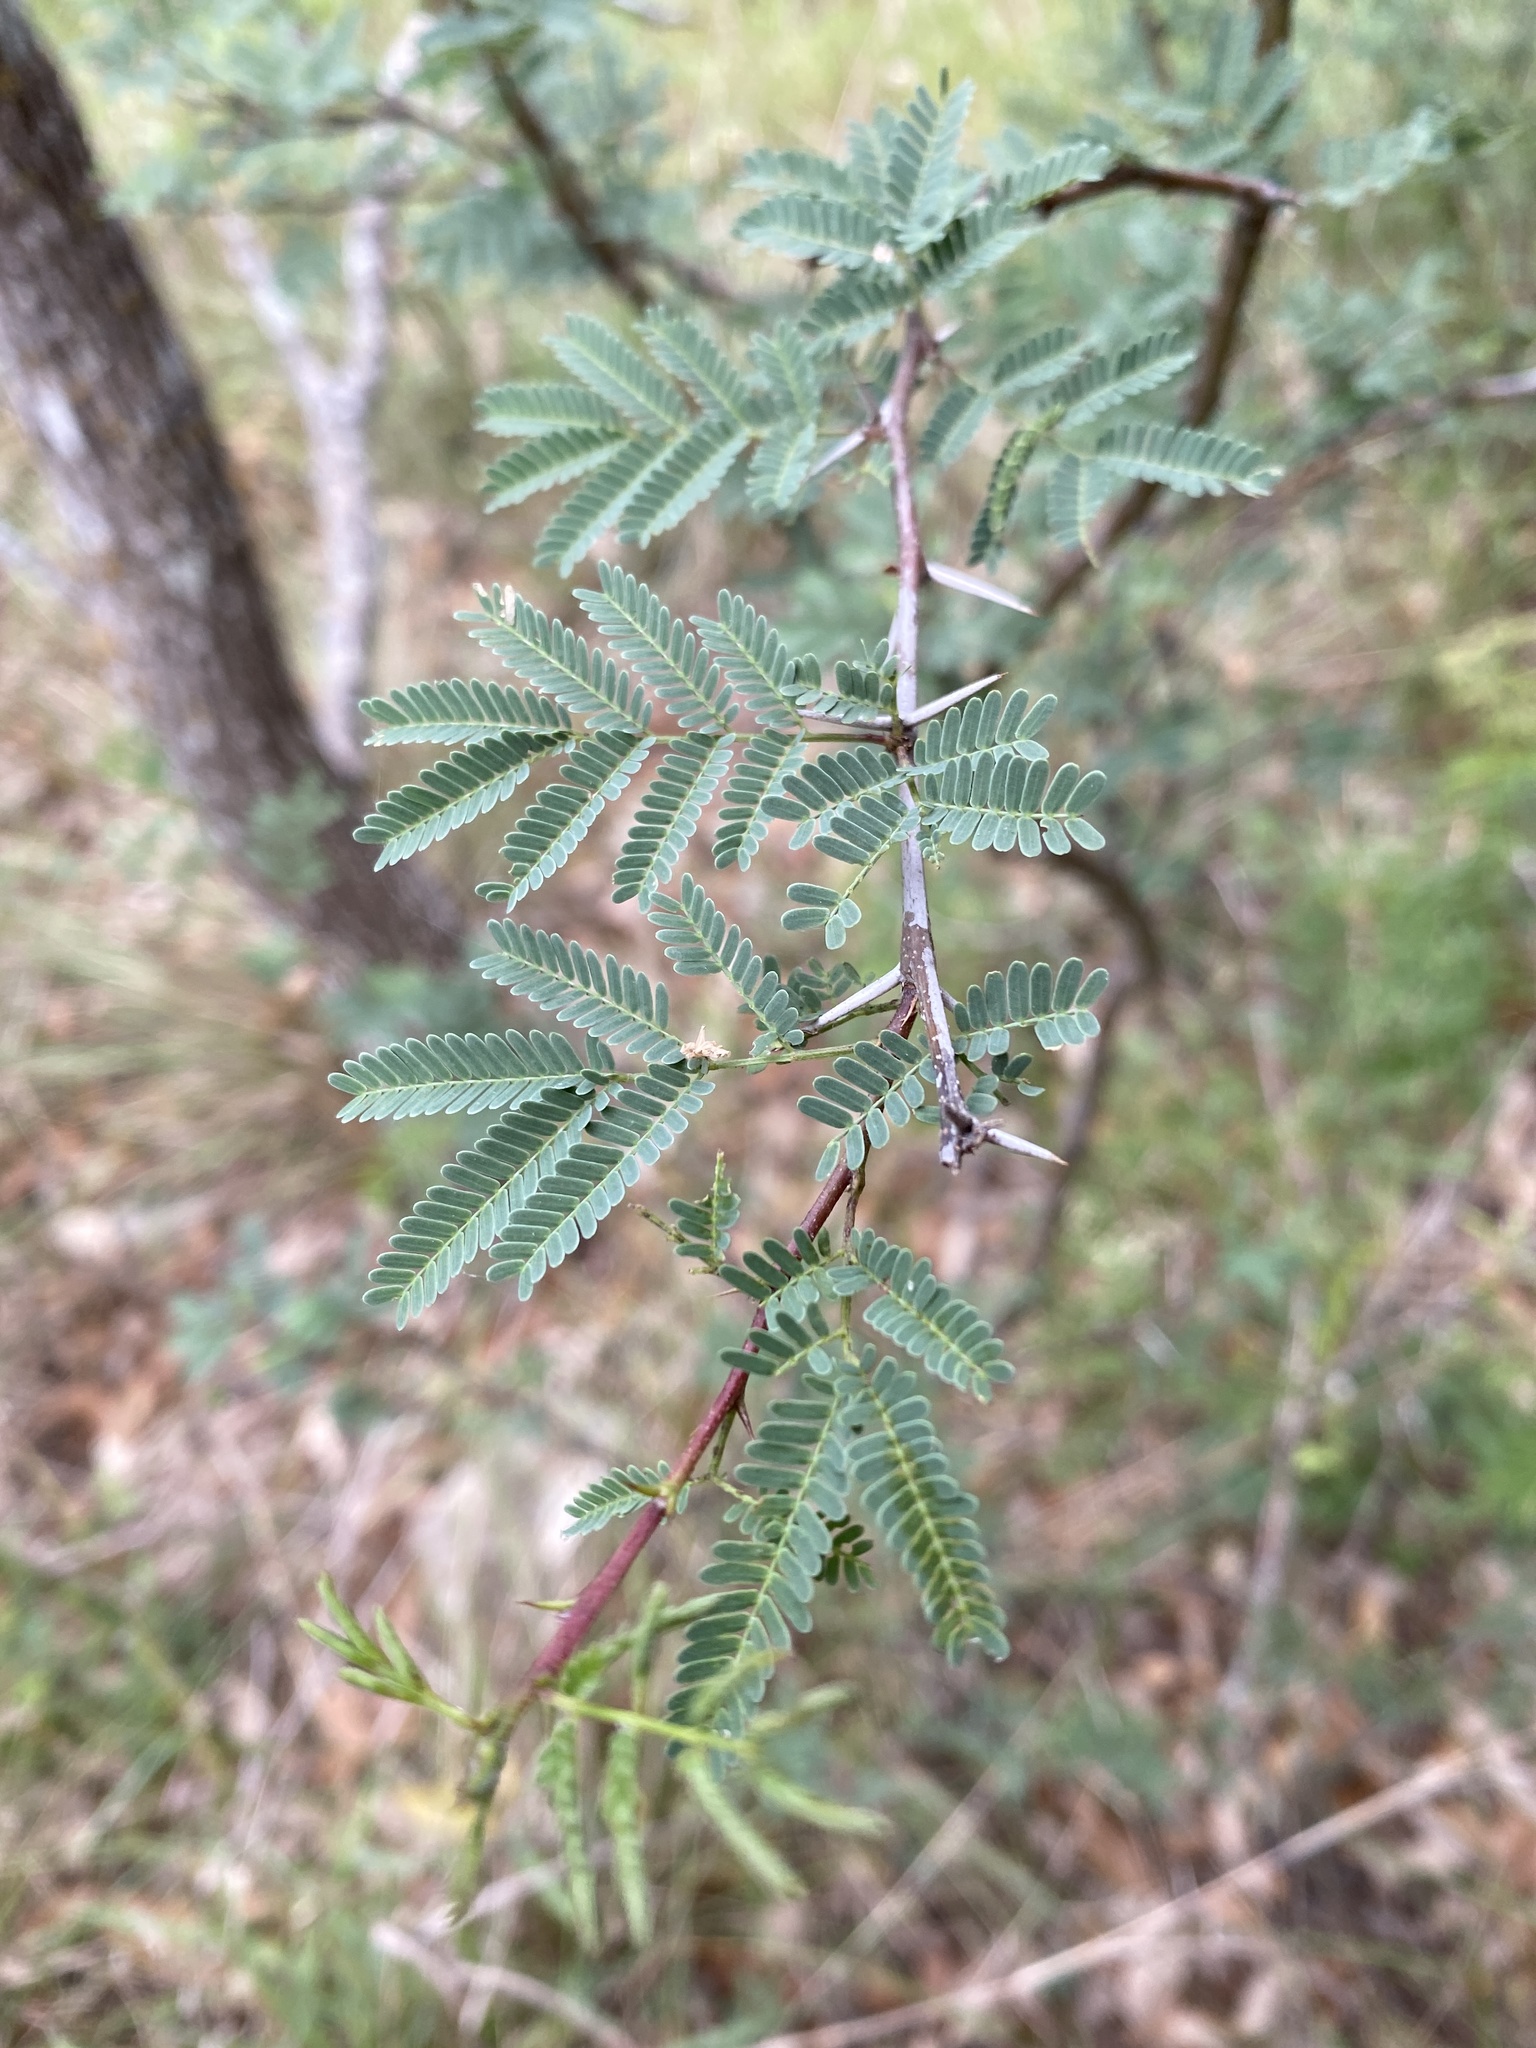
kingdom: Plantae
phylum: Tracheophyta
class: Magnoliopsida
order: Fabales
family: Fabaceae
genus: Vachellia
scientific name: Vachellia farnesiana
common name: Sweet acacia
